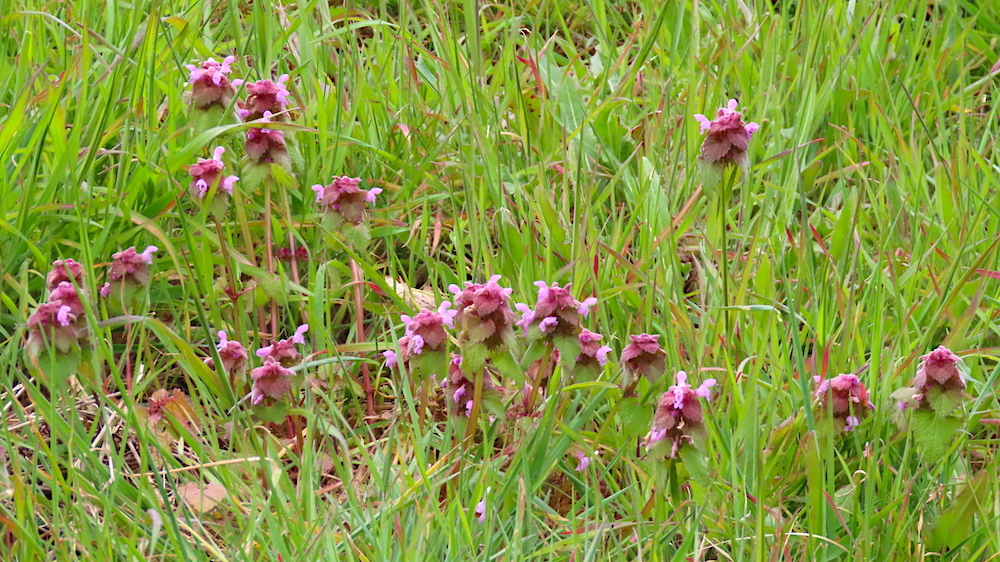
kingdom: Plantae
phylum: Tracheophyta
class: Magnoliopsida
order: Lamiales
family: Lamiaceae
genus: Lamium
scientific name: Lamium purpureum
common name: Red dead-nettle
